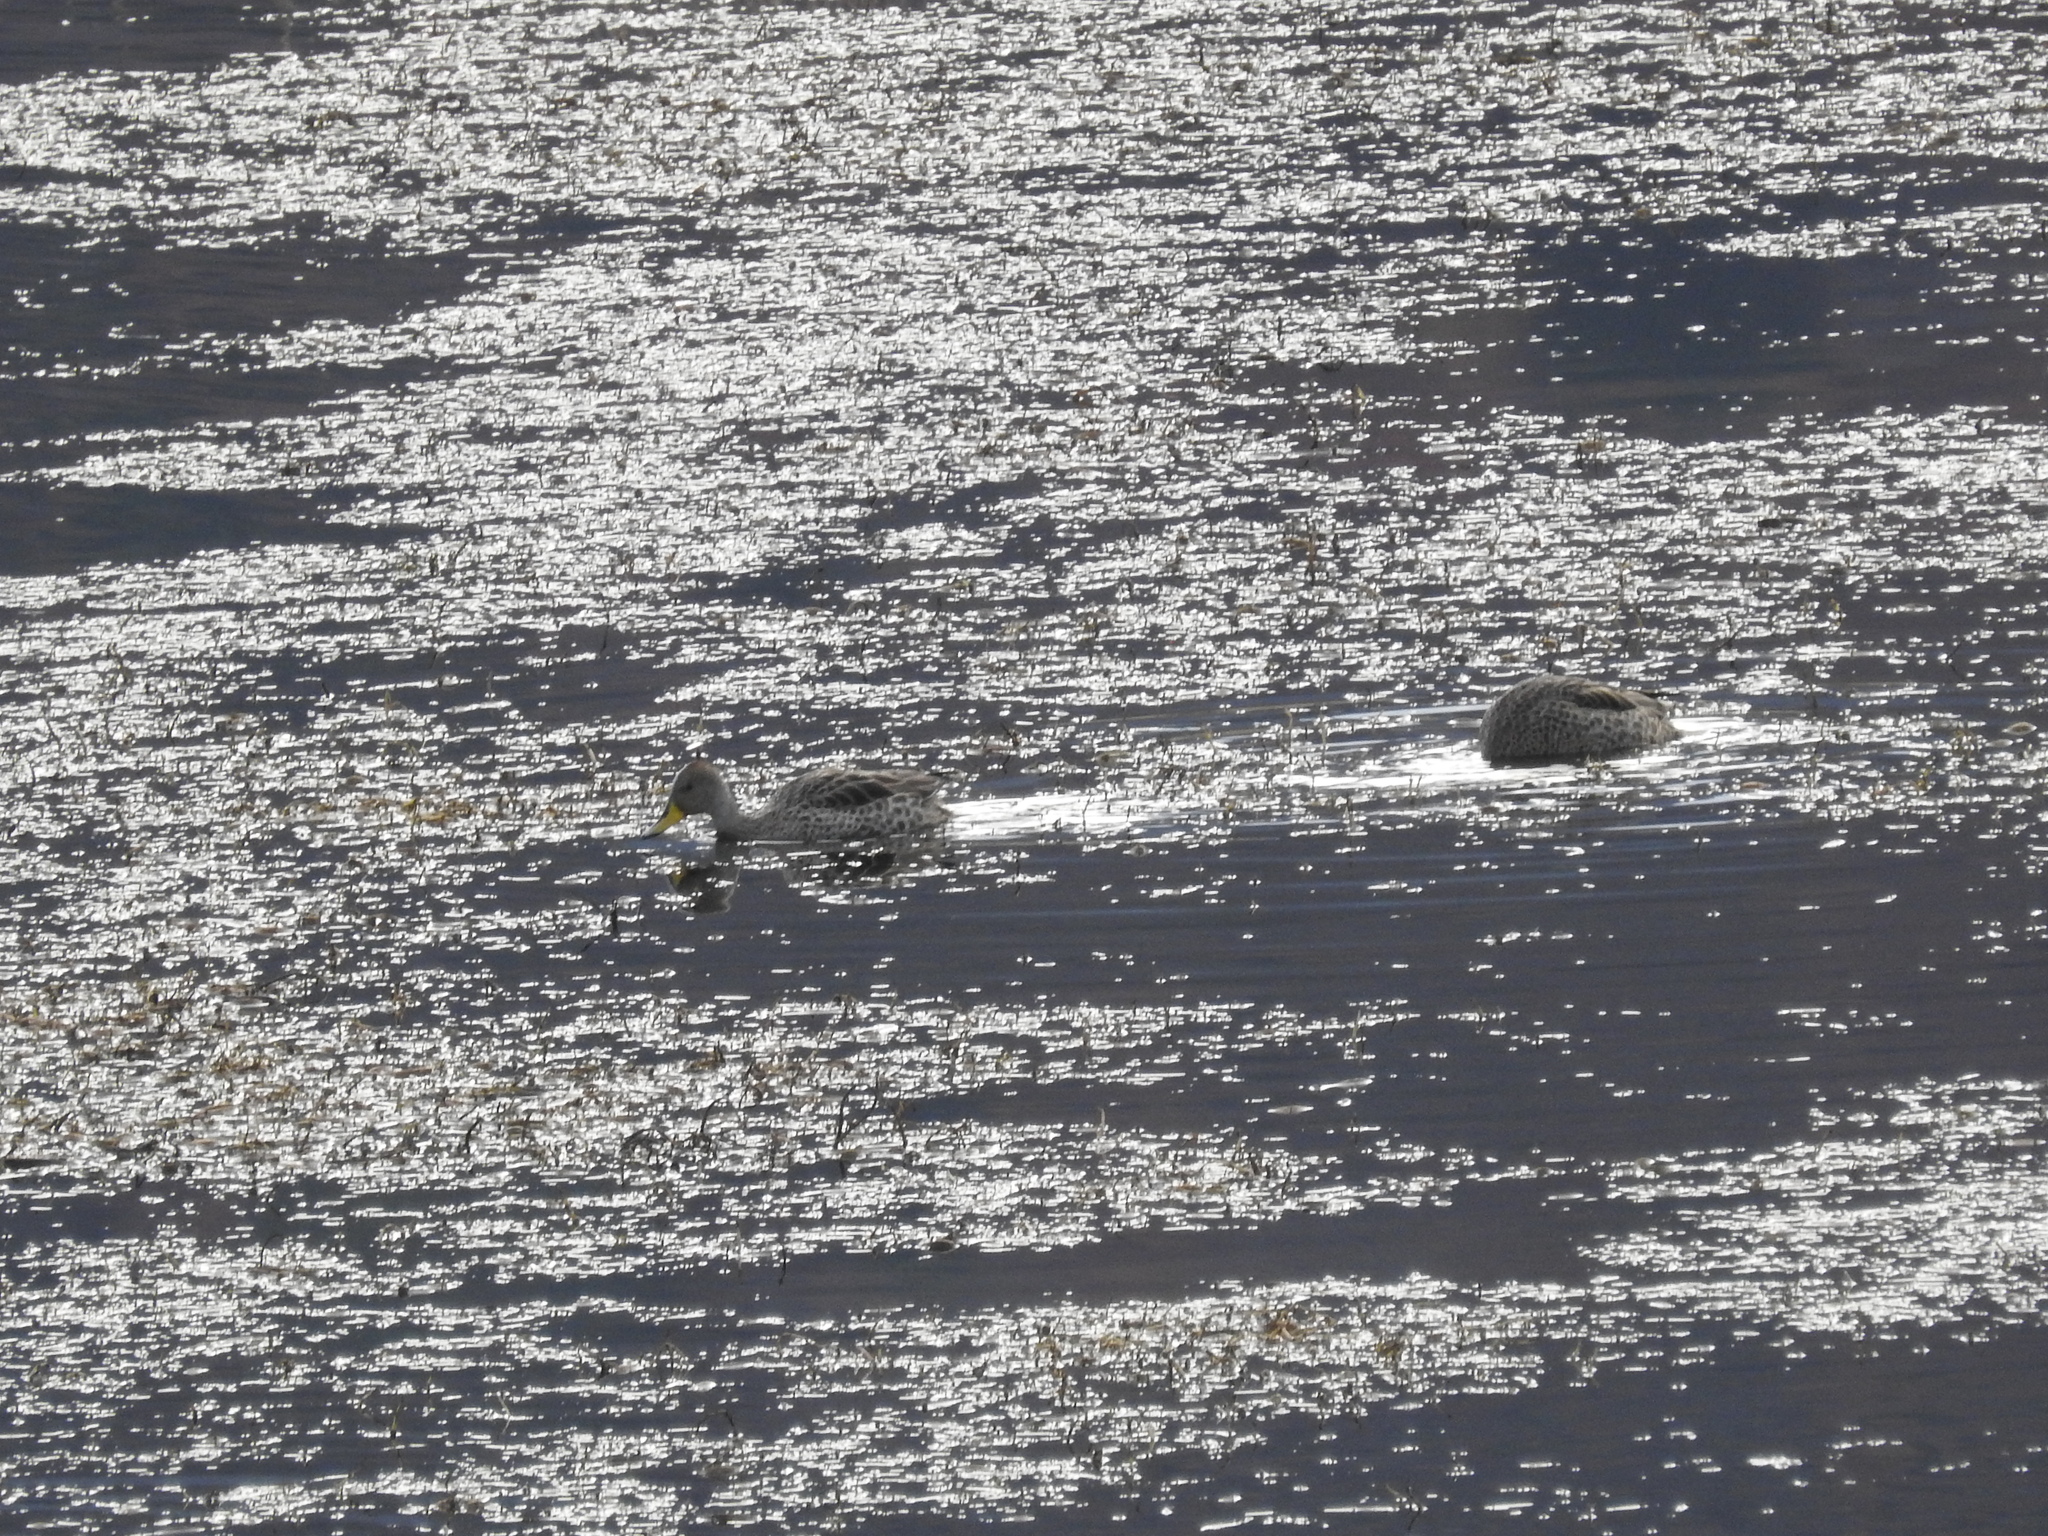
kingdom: Animalia
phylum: Chordata
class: Aves
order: Anseriformes
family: Anatidae
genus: Anas
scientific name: Anas georgica
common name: Yellow-billed pintail
